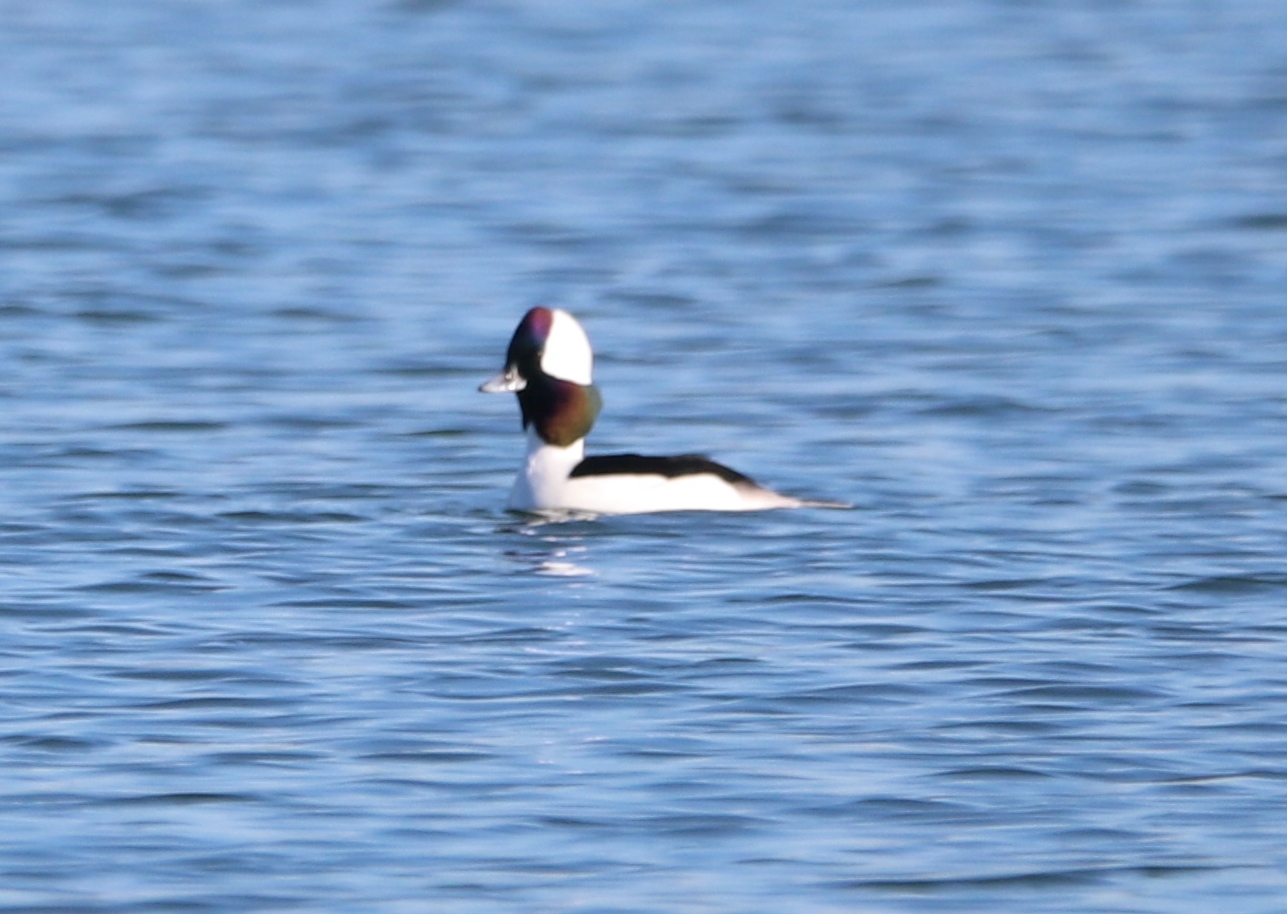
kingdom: Animalia
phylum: Chordata
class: Aves
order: Anseriformes
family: Anatidae
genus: Bucephala
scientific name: Bucephala albeola
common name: Bufflehead
